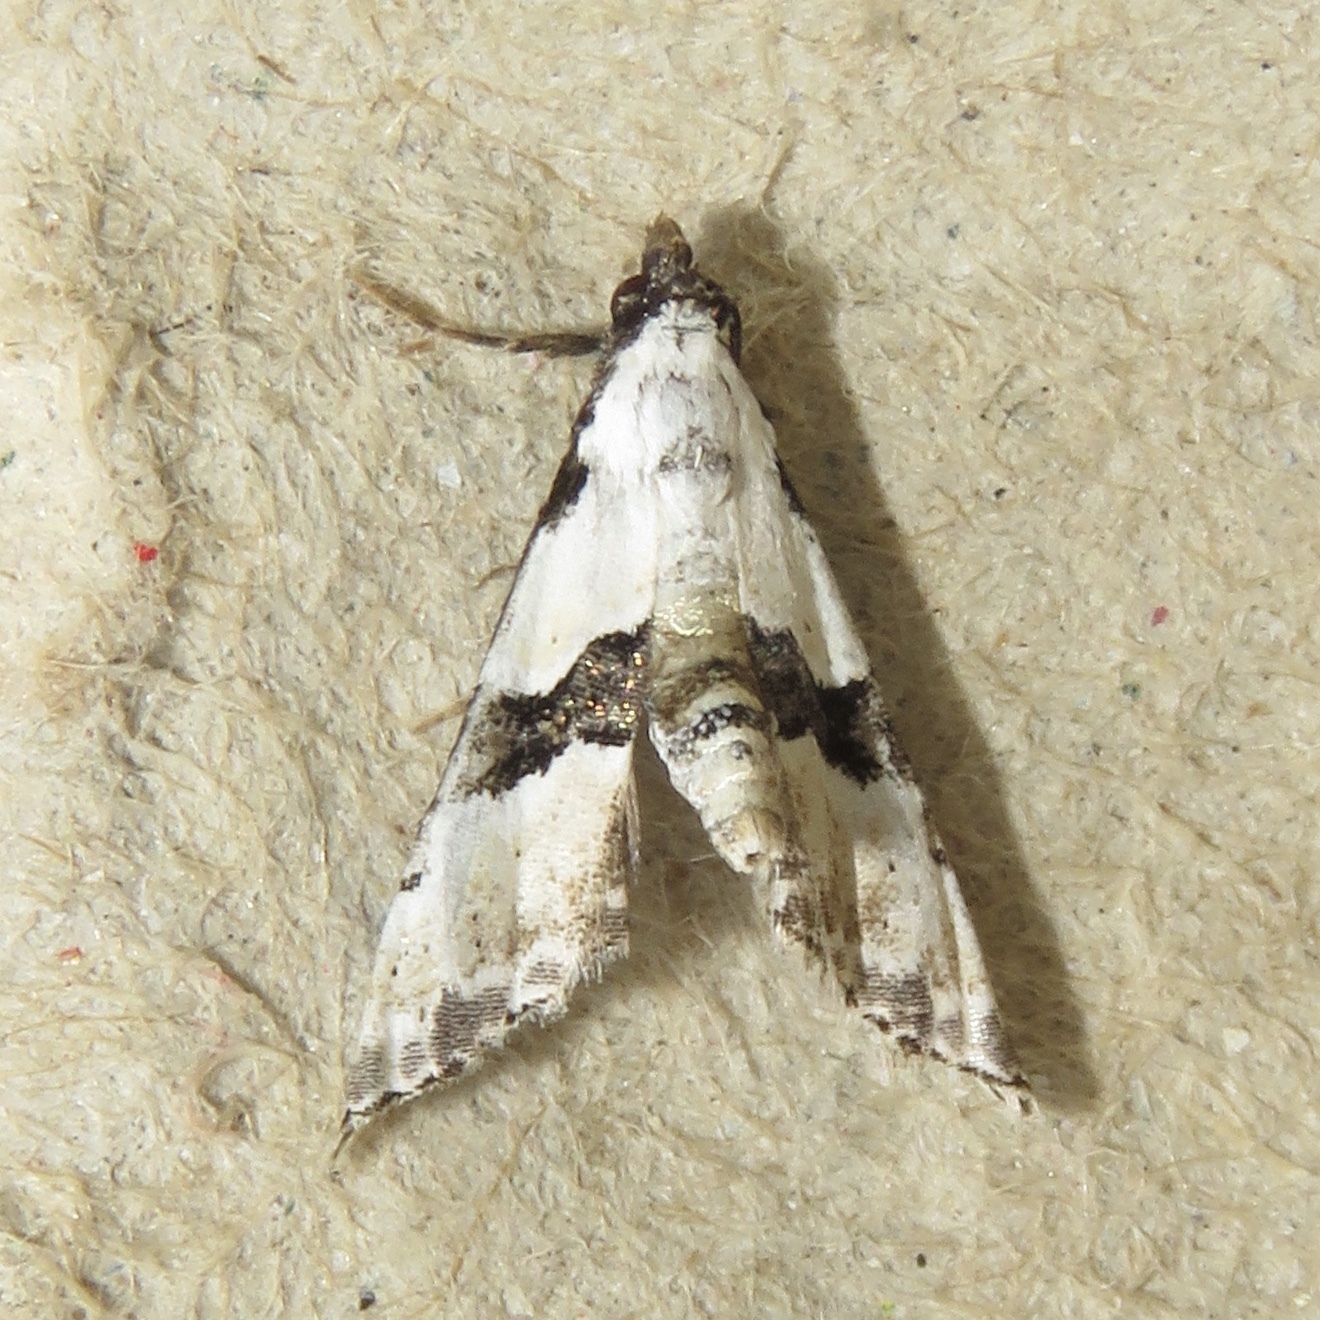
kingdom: Animalia
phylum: Arthropoda
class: Insecta
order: Lepidoptera
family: Noctuidae
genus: Nigetia
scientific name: Nigetia formosalis
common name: Thin-winged owlet
